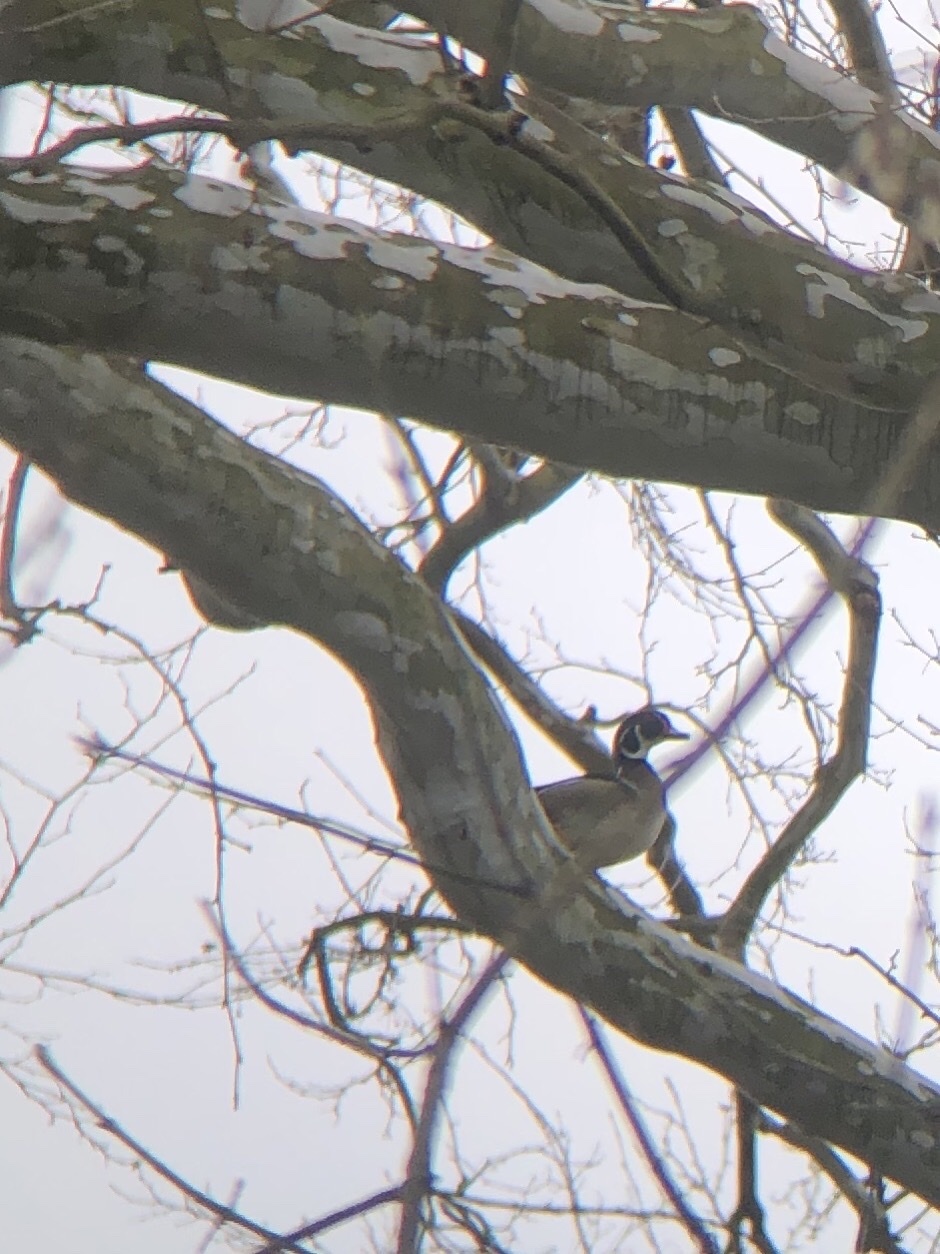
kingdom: Animalia
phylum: Chordata
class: Aves
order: Anseriformes
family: Anatidae
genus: Aix
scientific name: Aix sponsa
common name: Wood duck
